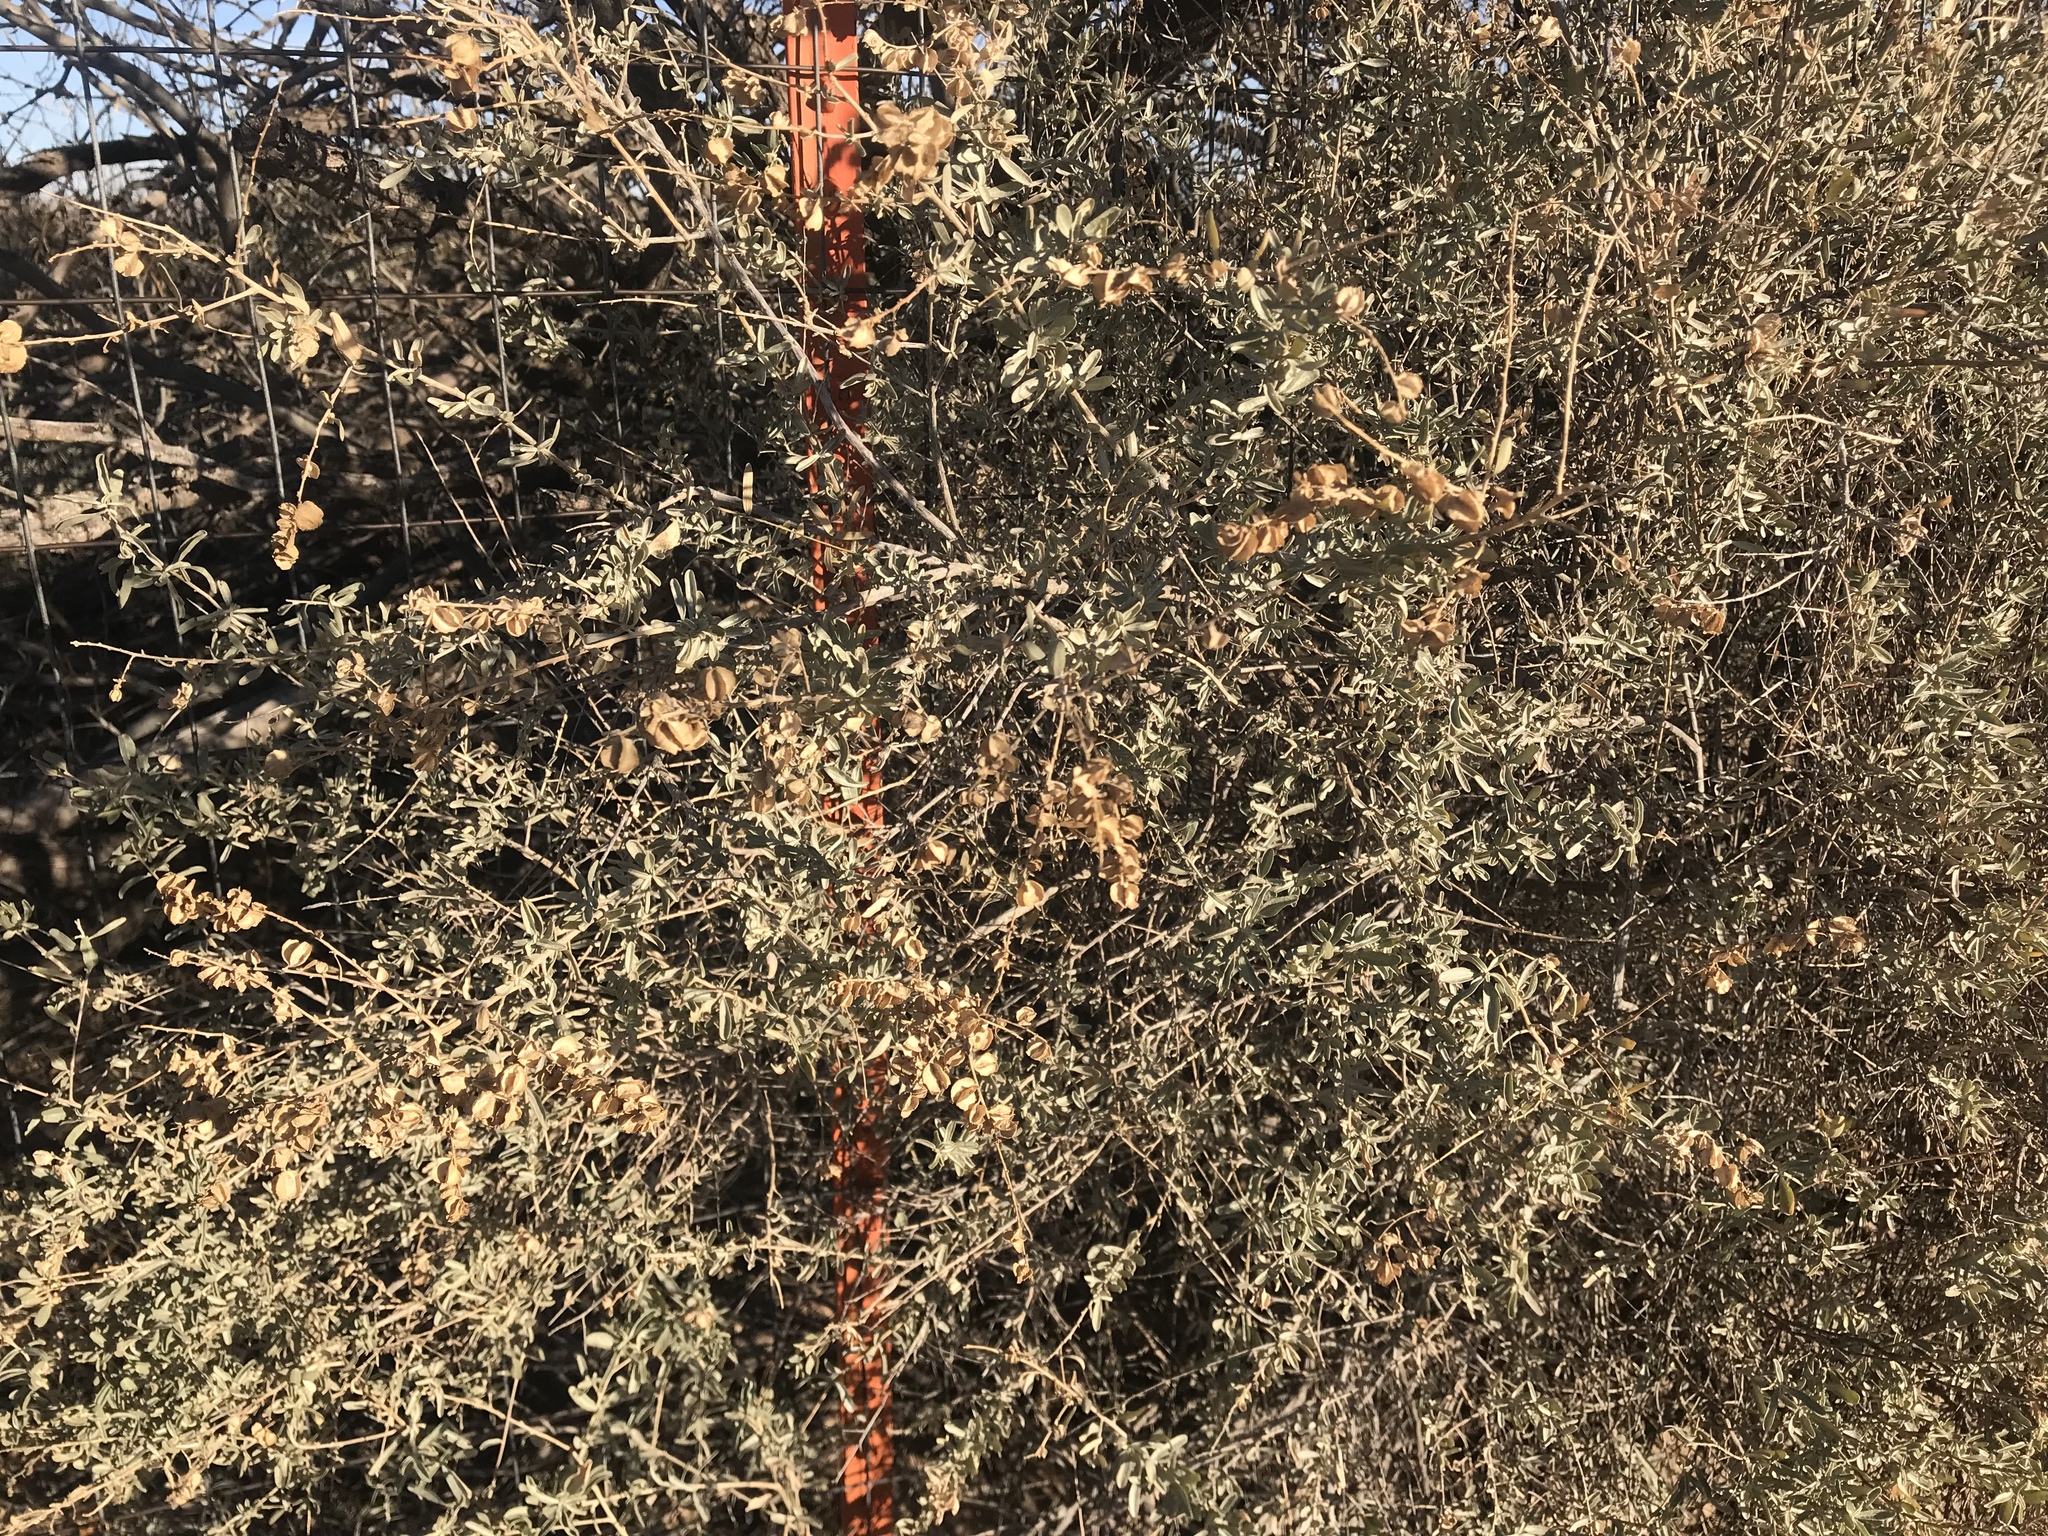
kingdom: Plantae
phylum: Tracheophyta
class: Magnoliopsida
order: Caryophyllales
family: Amaranthaceae
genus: Atriplex
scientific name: Atriplex canescens
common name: Four-wing saltbush
